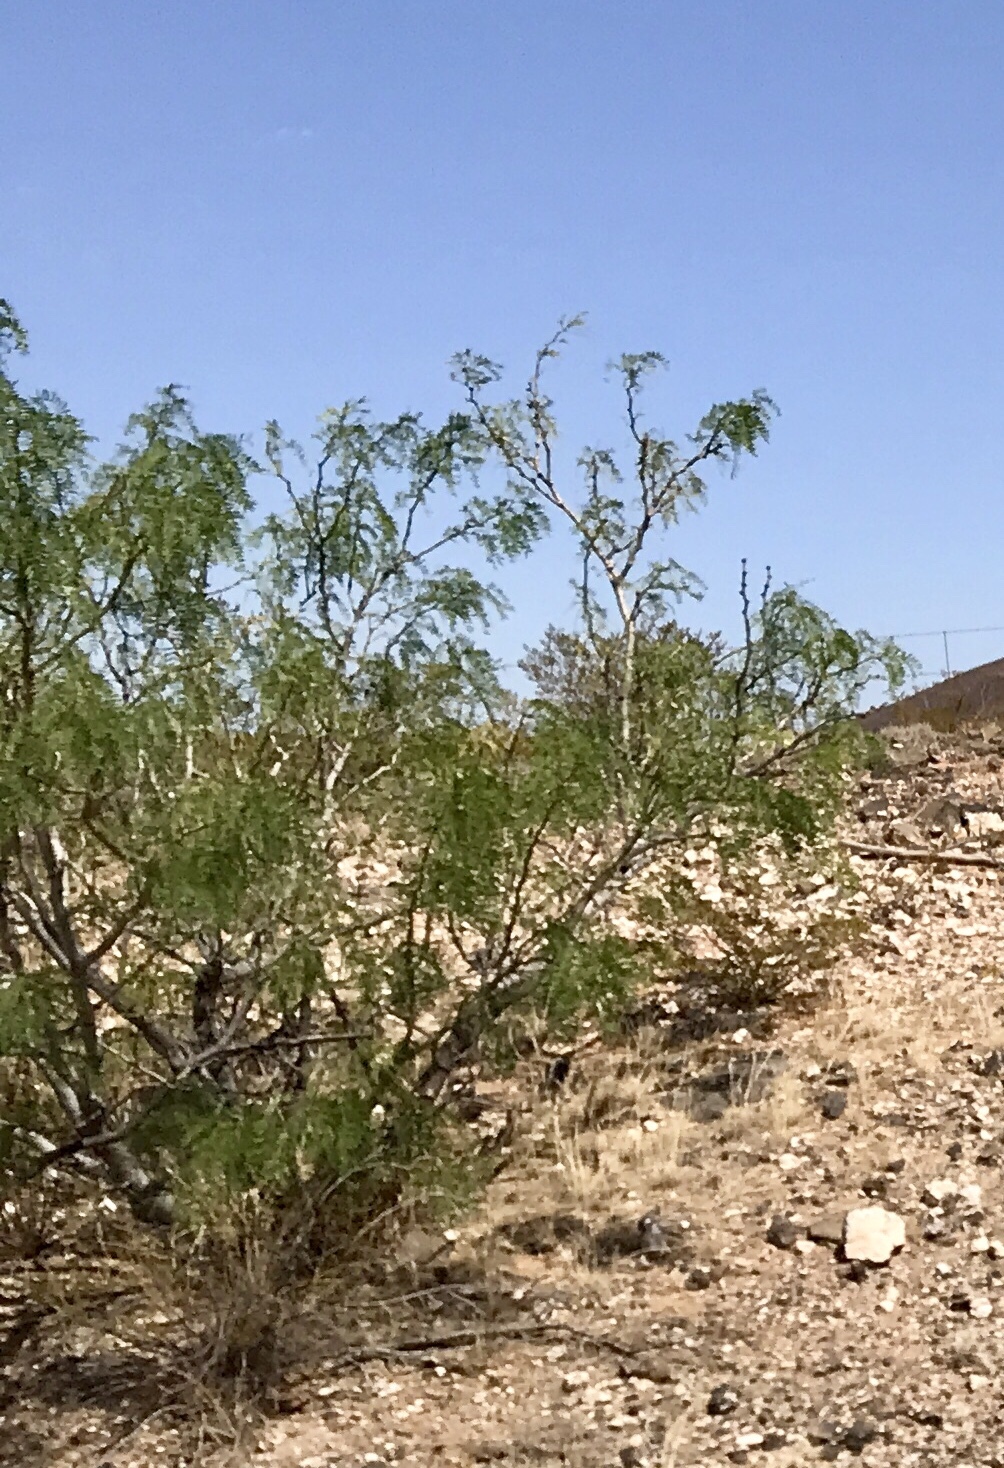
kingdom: Plantae
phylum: Tracheophyta
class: Magnoliopsida
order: Fabales
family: Fabaceae
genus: Prosopis
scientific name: Prosopis glandulosa
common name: Honey mesquite
